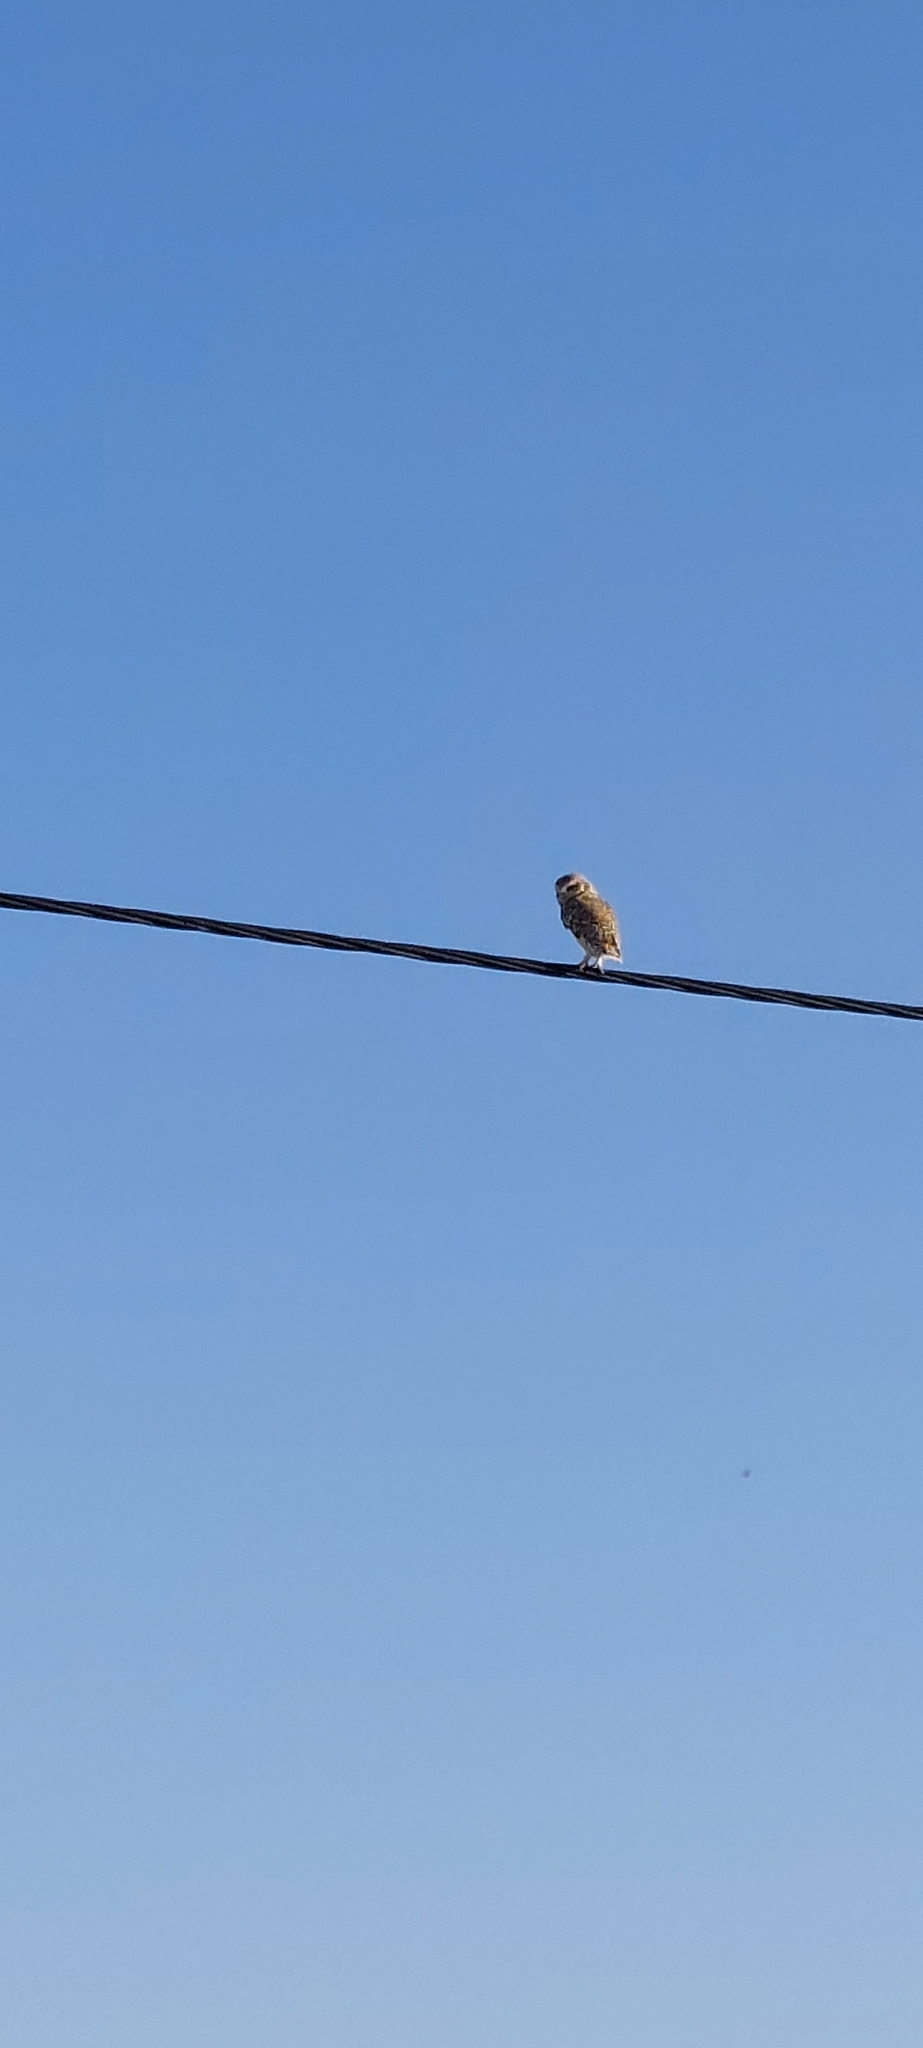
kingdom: Animalia
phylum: Chordata
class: Aves
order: Strigiformes
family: Strigidae
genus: Athene
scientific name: Athene cunicularia
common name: Burrowing owl
